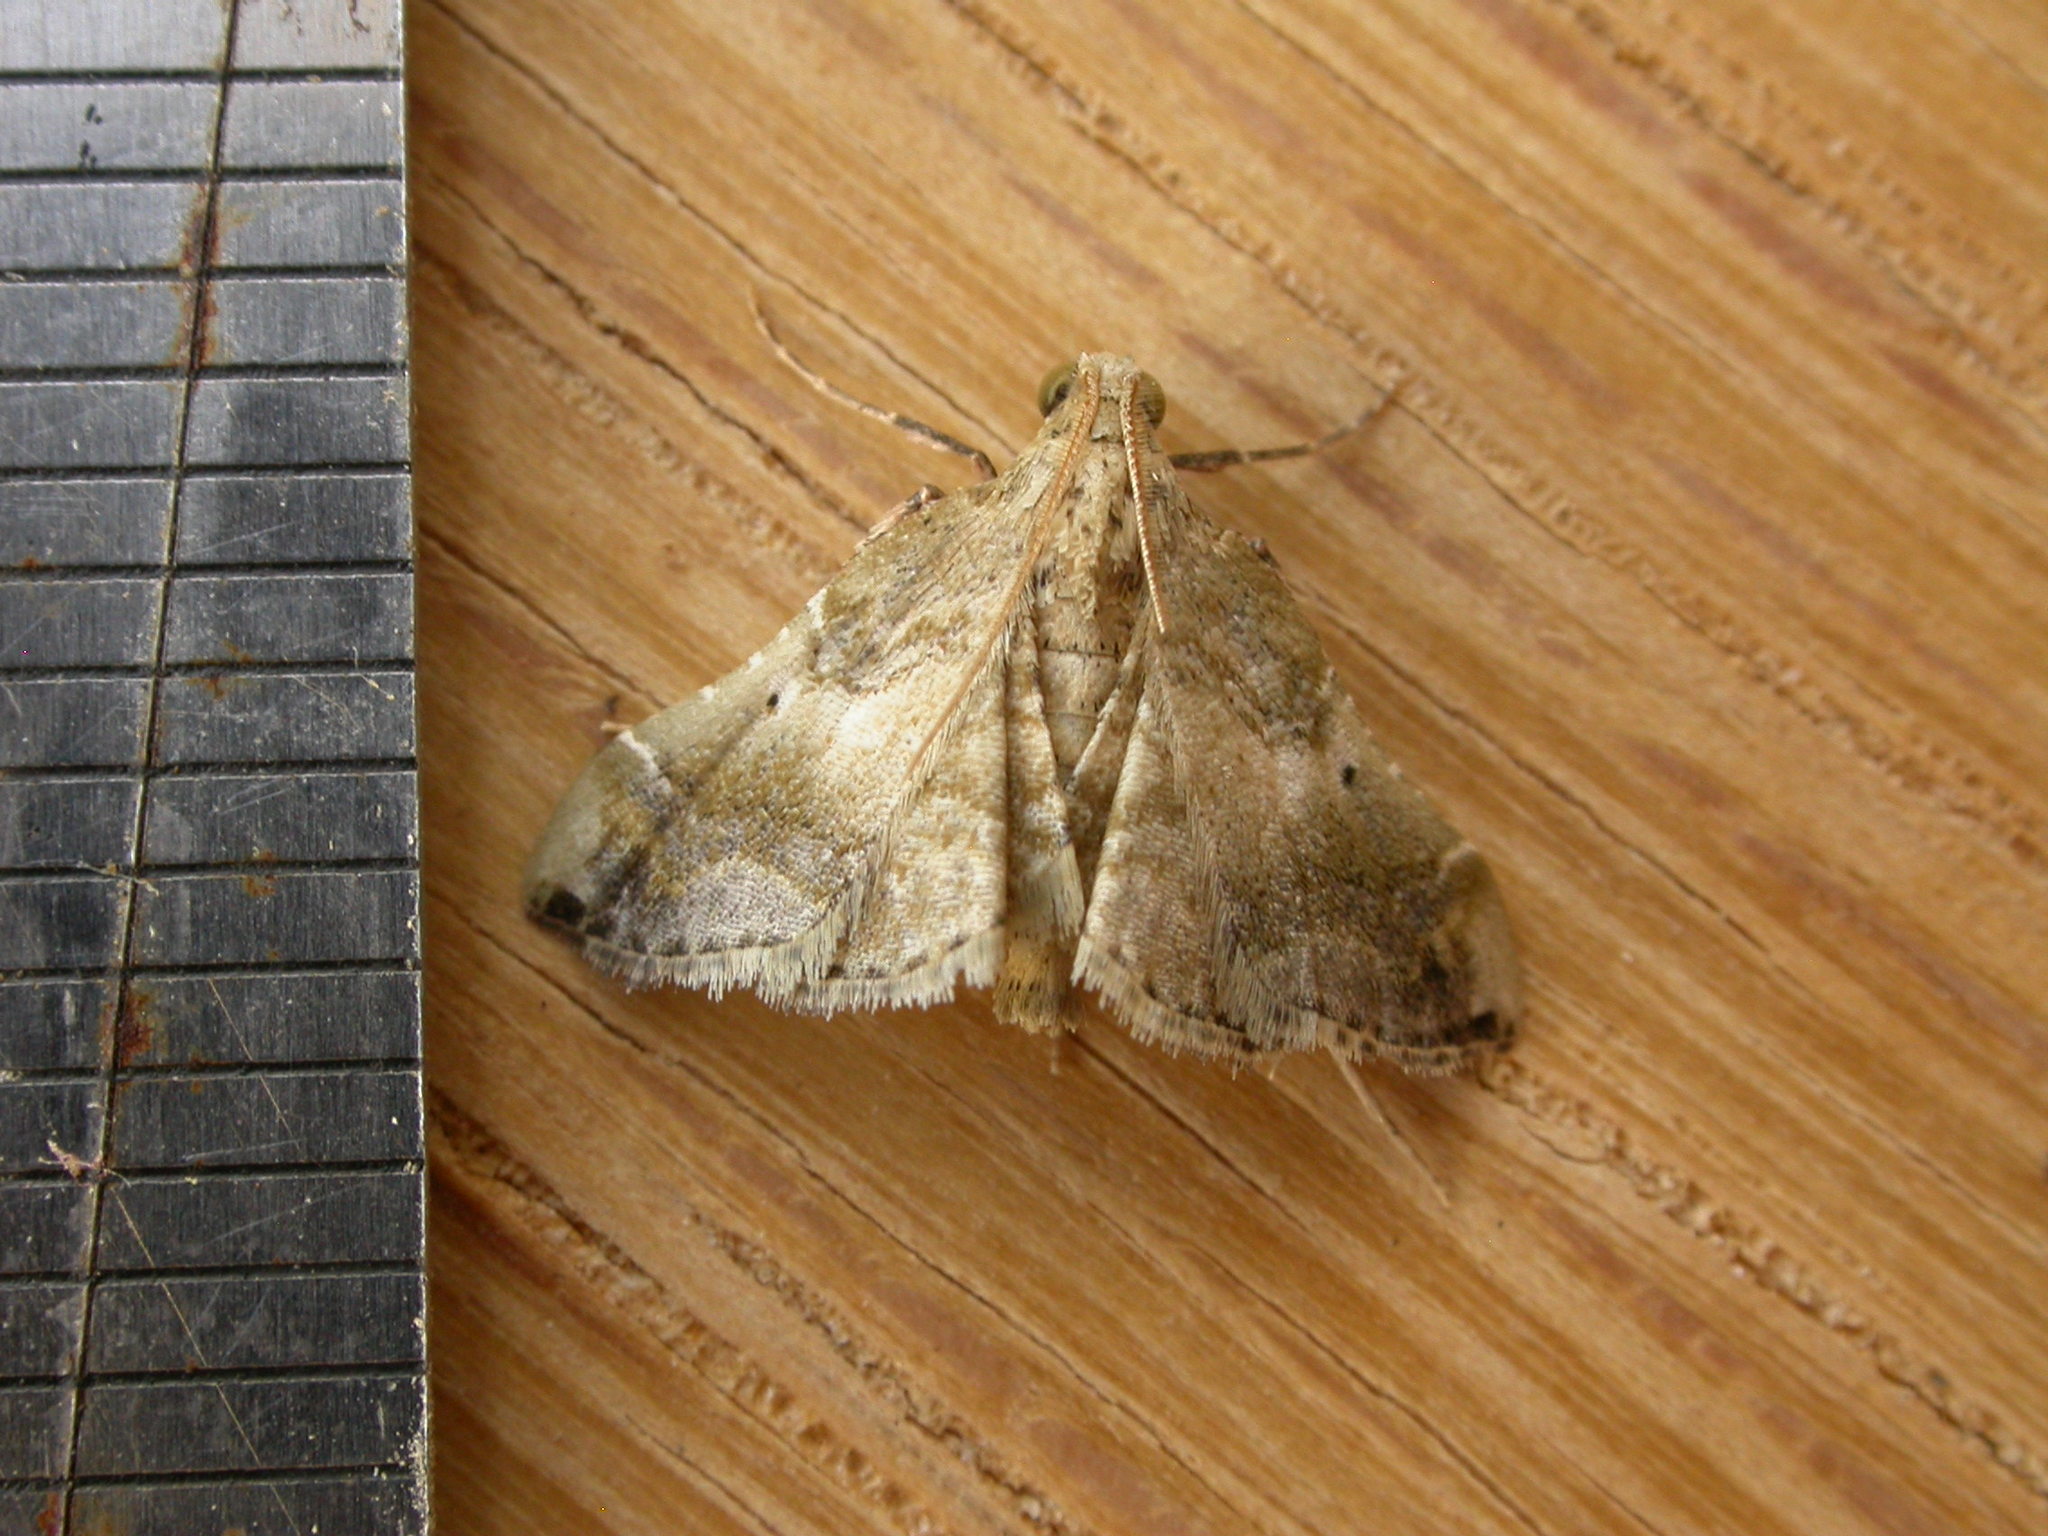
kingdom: Animalia
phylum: Arthropoda
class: Insecta
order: Lepidoptera
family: Pyralidae
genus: Scenedra
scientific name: Scenedra decoratalis
